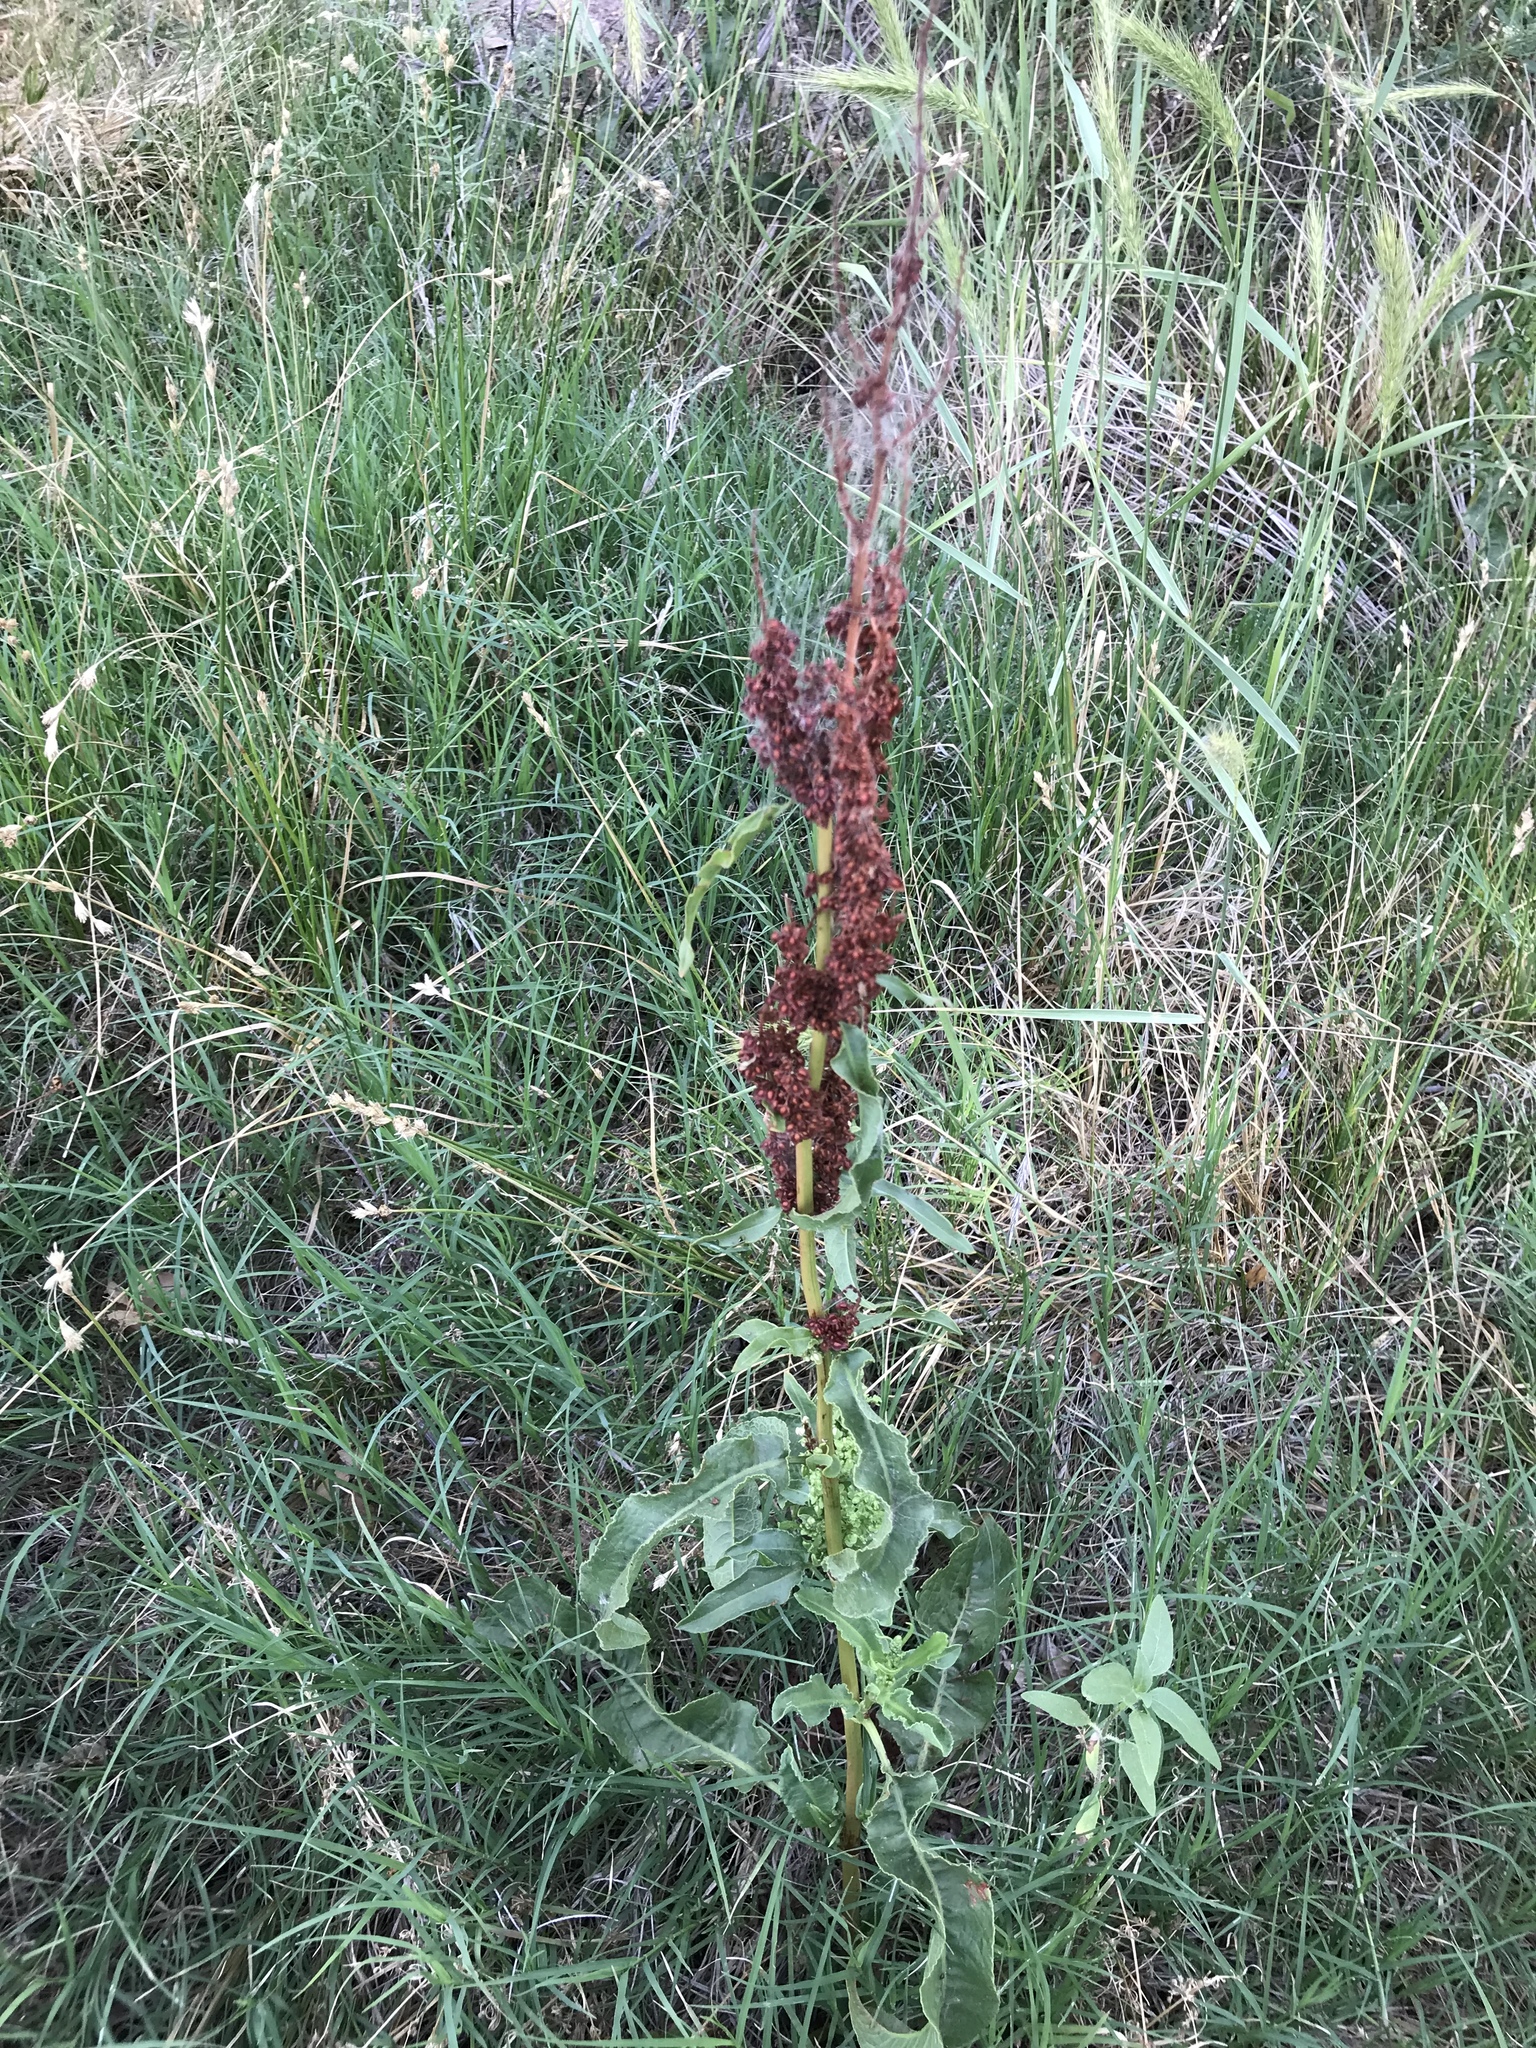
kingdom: Plantae
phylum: Tracheophyta
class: Magnoliopsida
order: Caryophyllales
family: Polygonaceae
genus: Rumex
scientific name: Rumex crispus
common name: Curled dock
